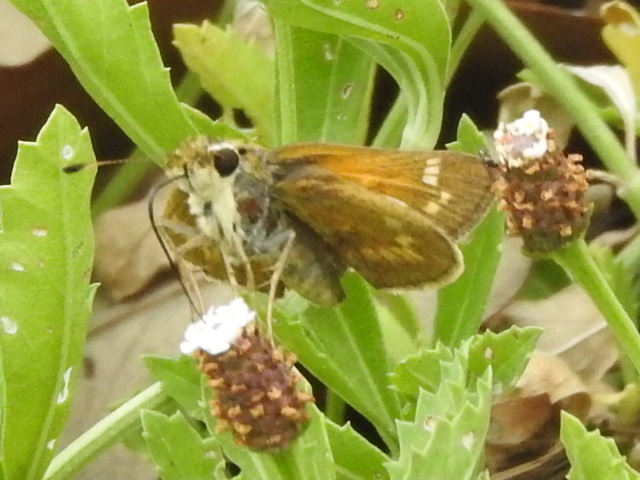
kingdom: Animalia
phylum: Arthropoda
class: Insecta
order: Lepidoptera
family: Hesperiidae
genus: Atalopedes
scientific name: Atalopedes
